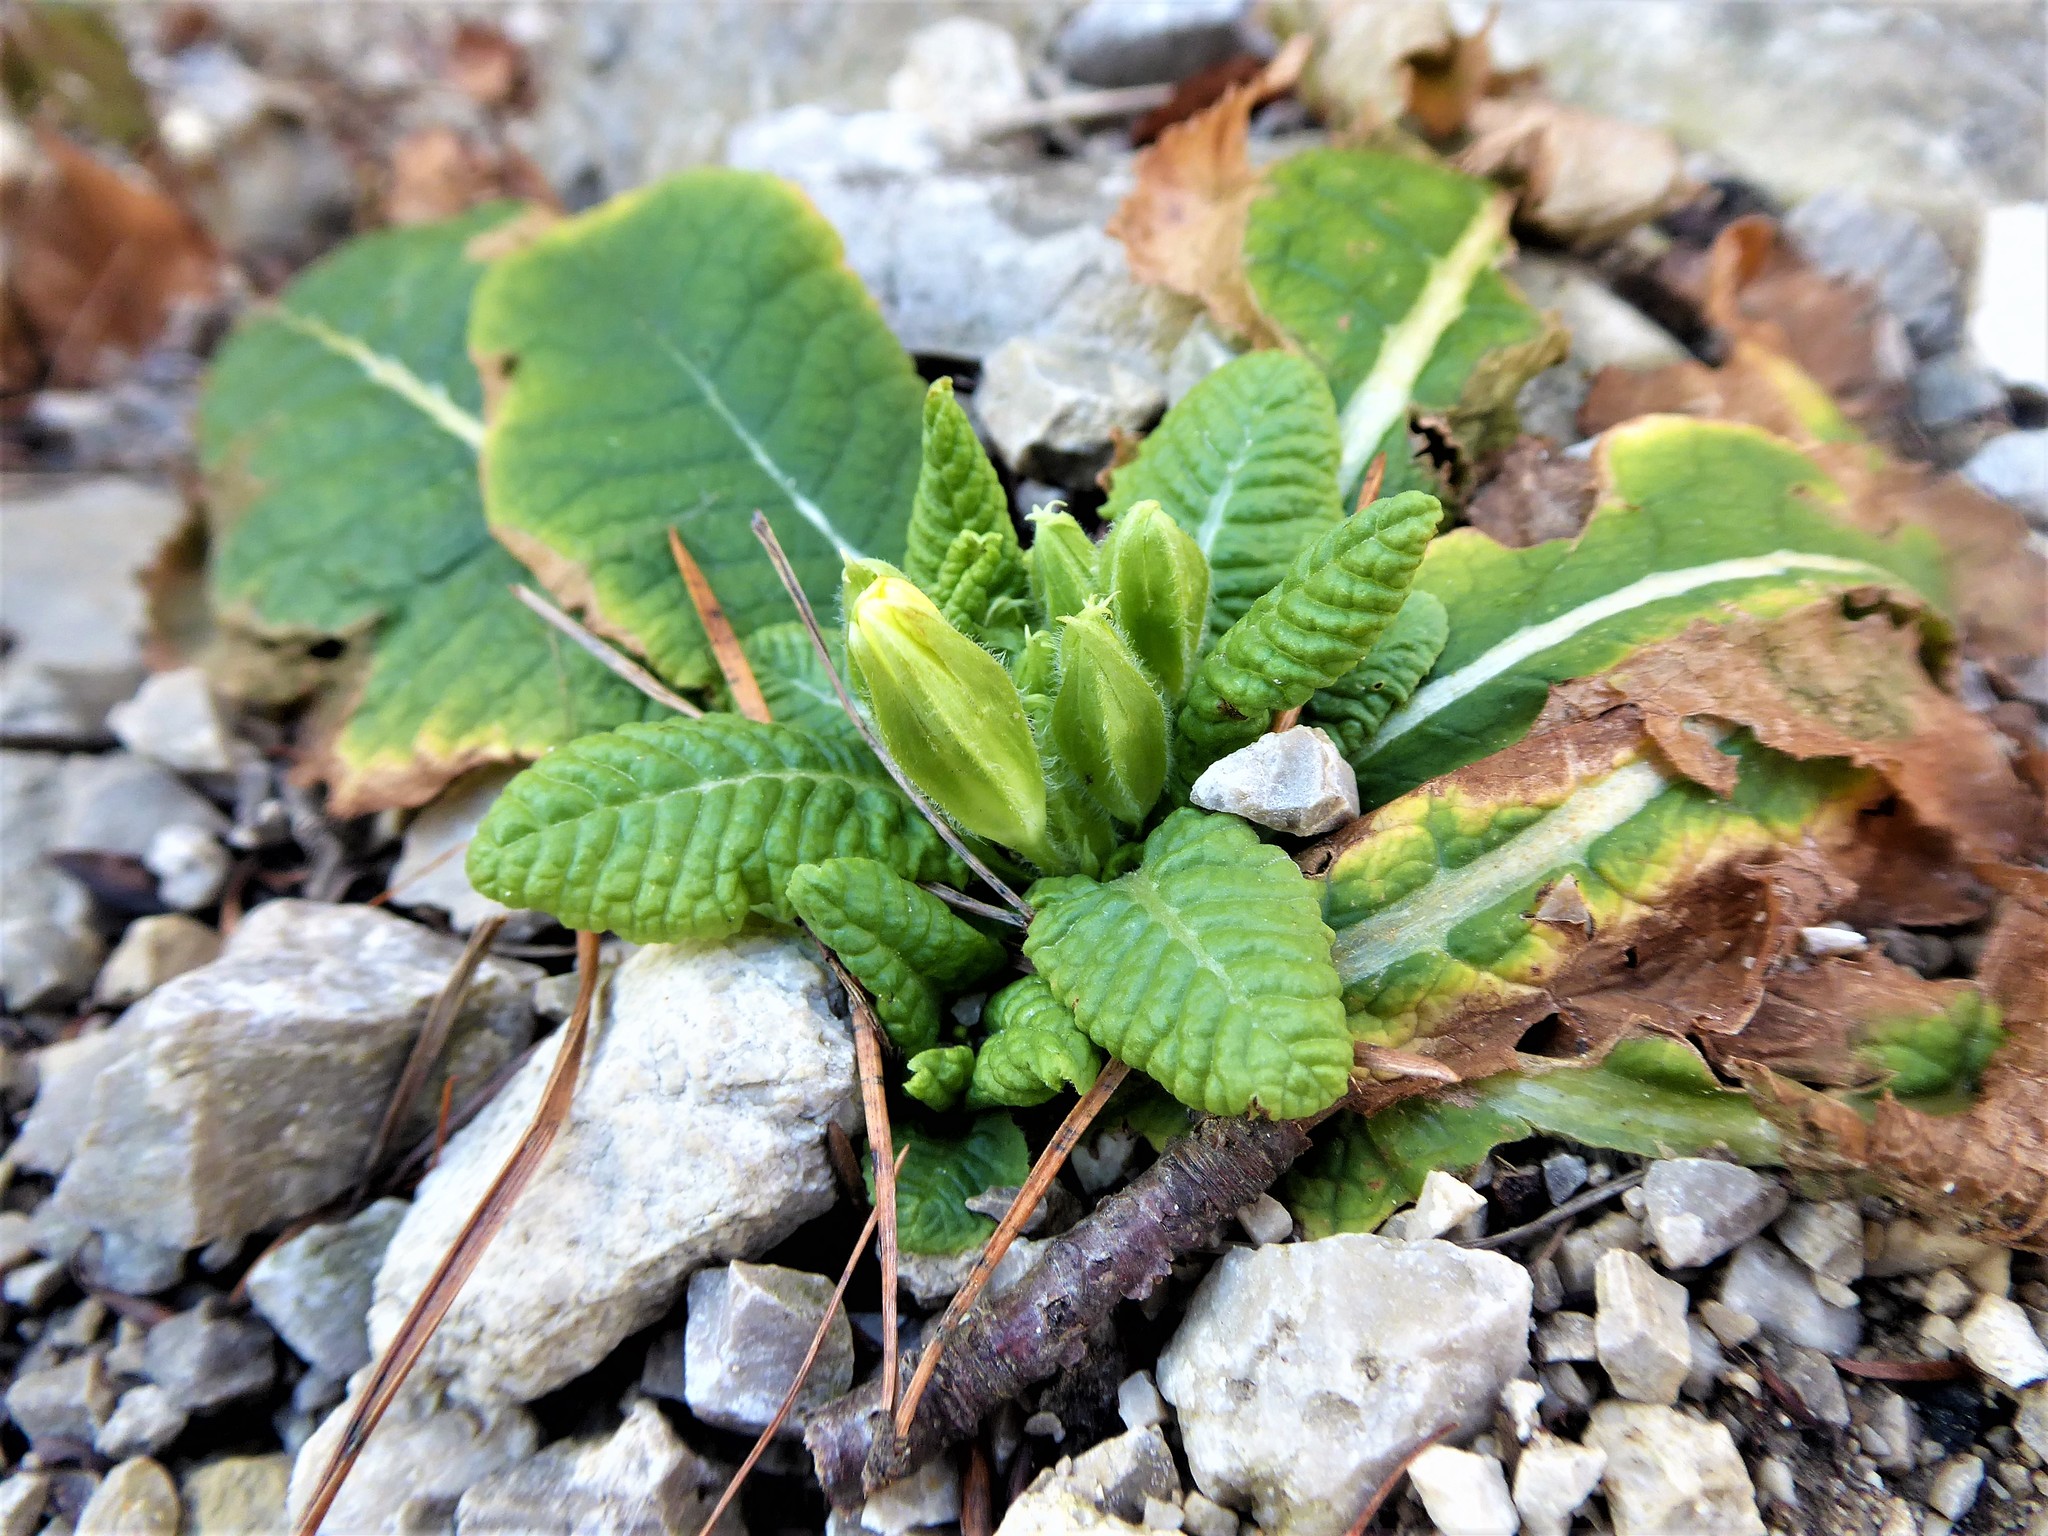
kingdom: Plantae
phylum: Tracheophyta
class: Magnoliopsida
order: Ericales
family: Primulaceae
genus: Primula
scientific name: Primula vulgaris
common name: Primrose
